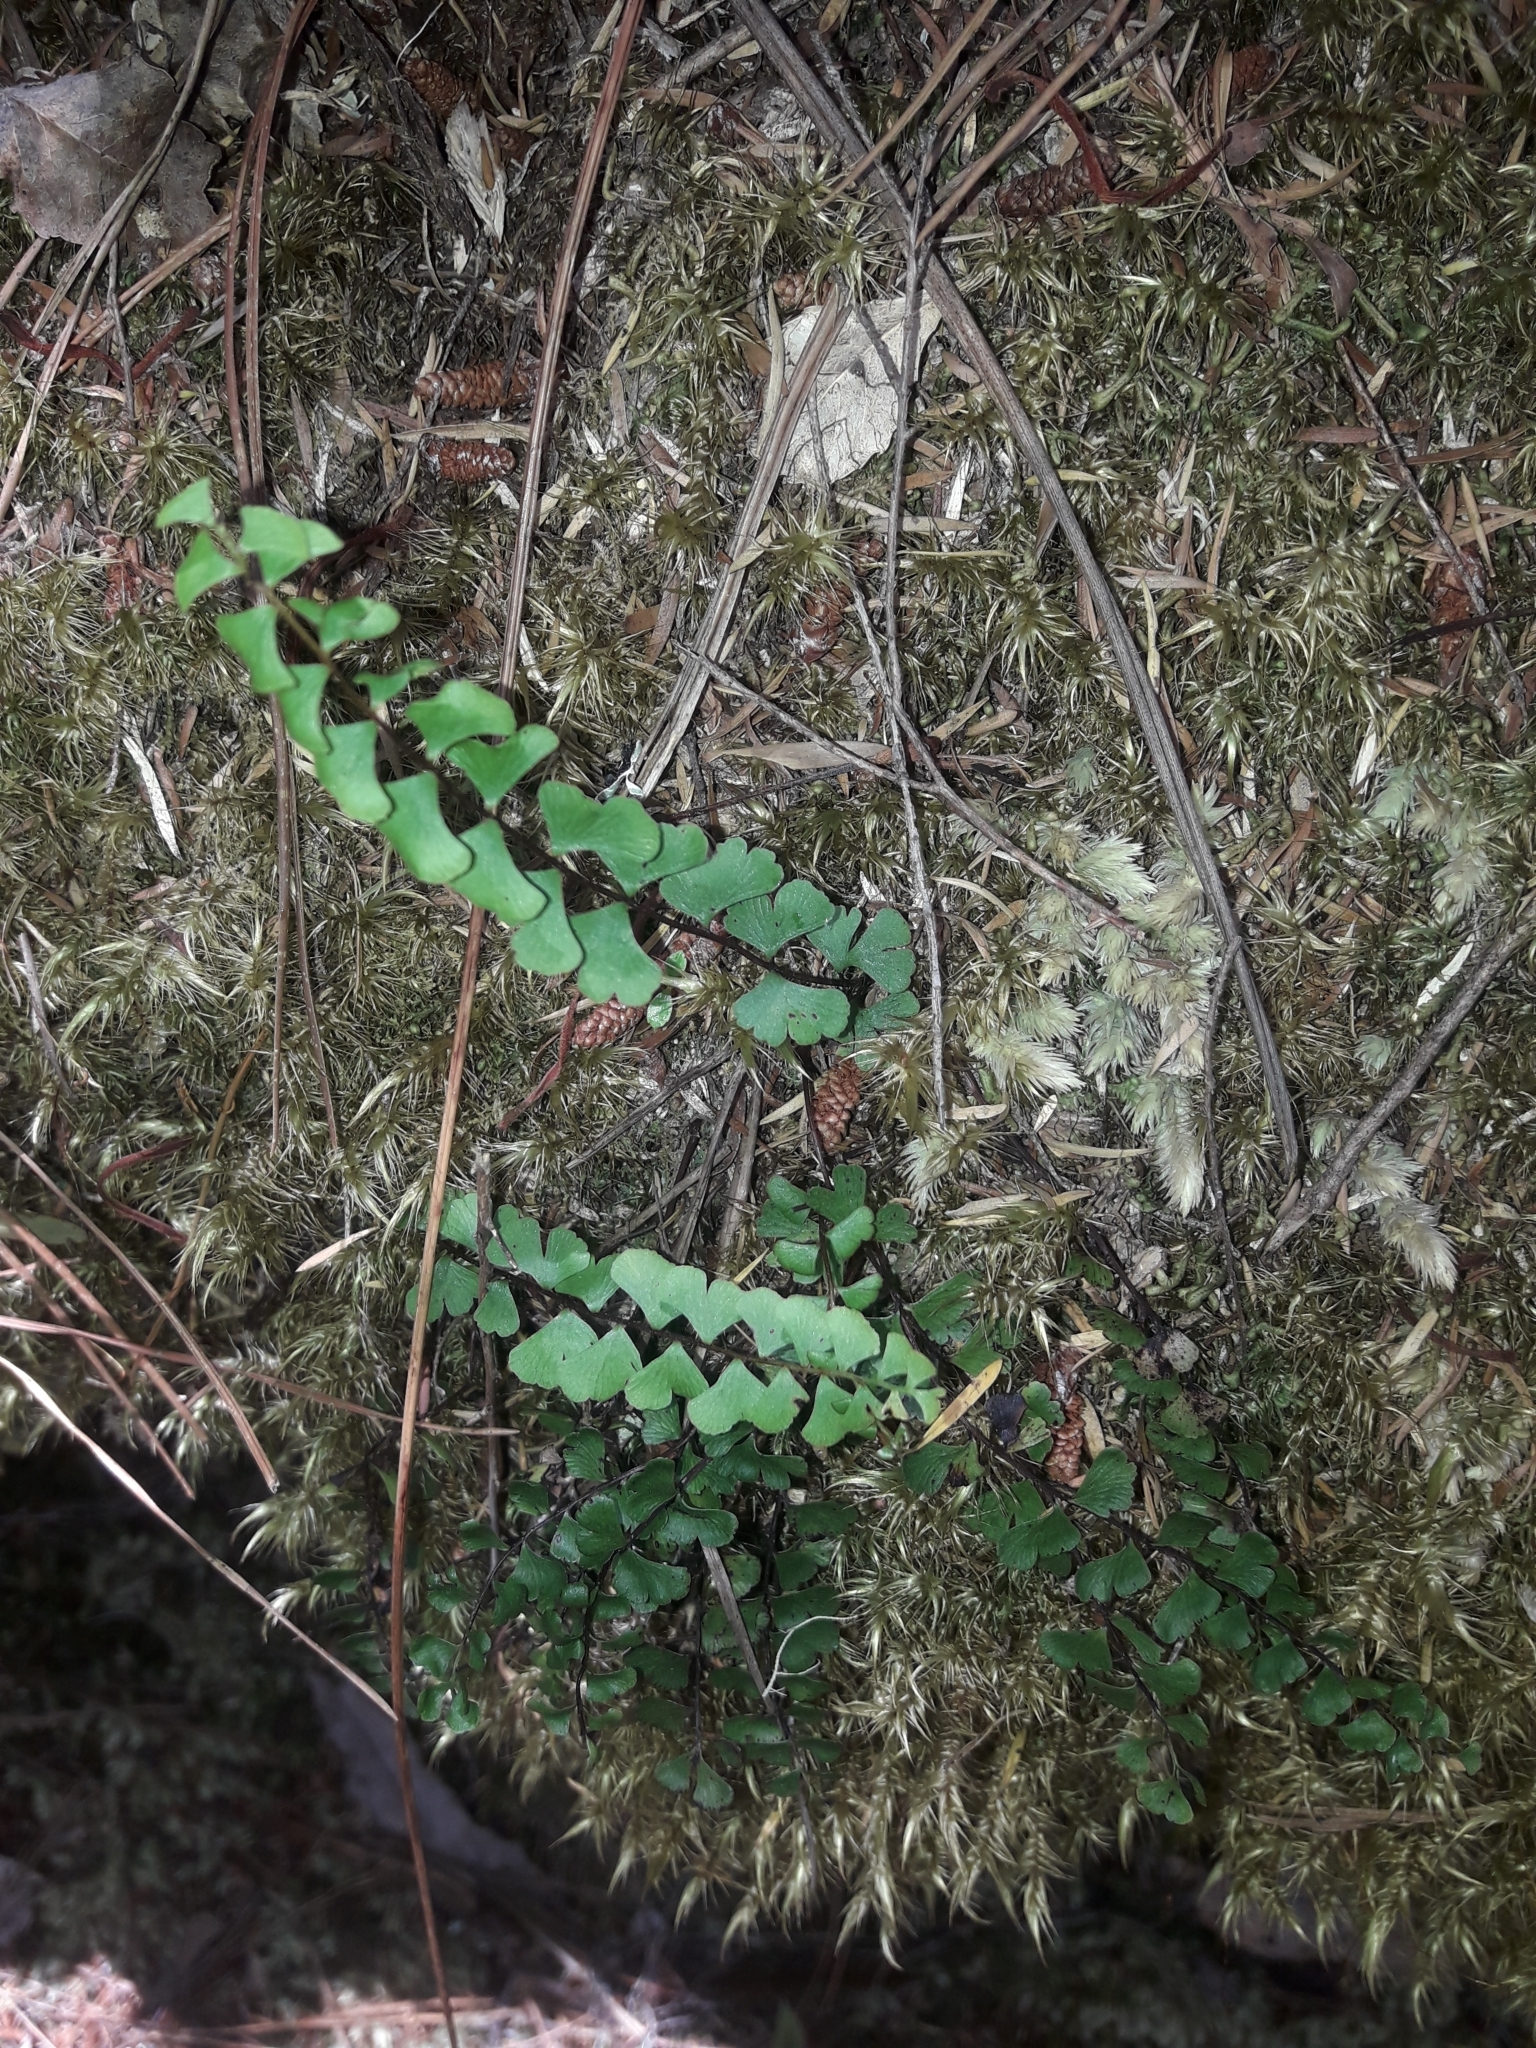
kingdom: Plantae
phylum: Tracheophyta
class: Polypodiopsida
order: Polypodiales
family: Lindsaeaceae
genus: Lindsaea
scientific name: Lindsaea linearis
